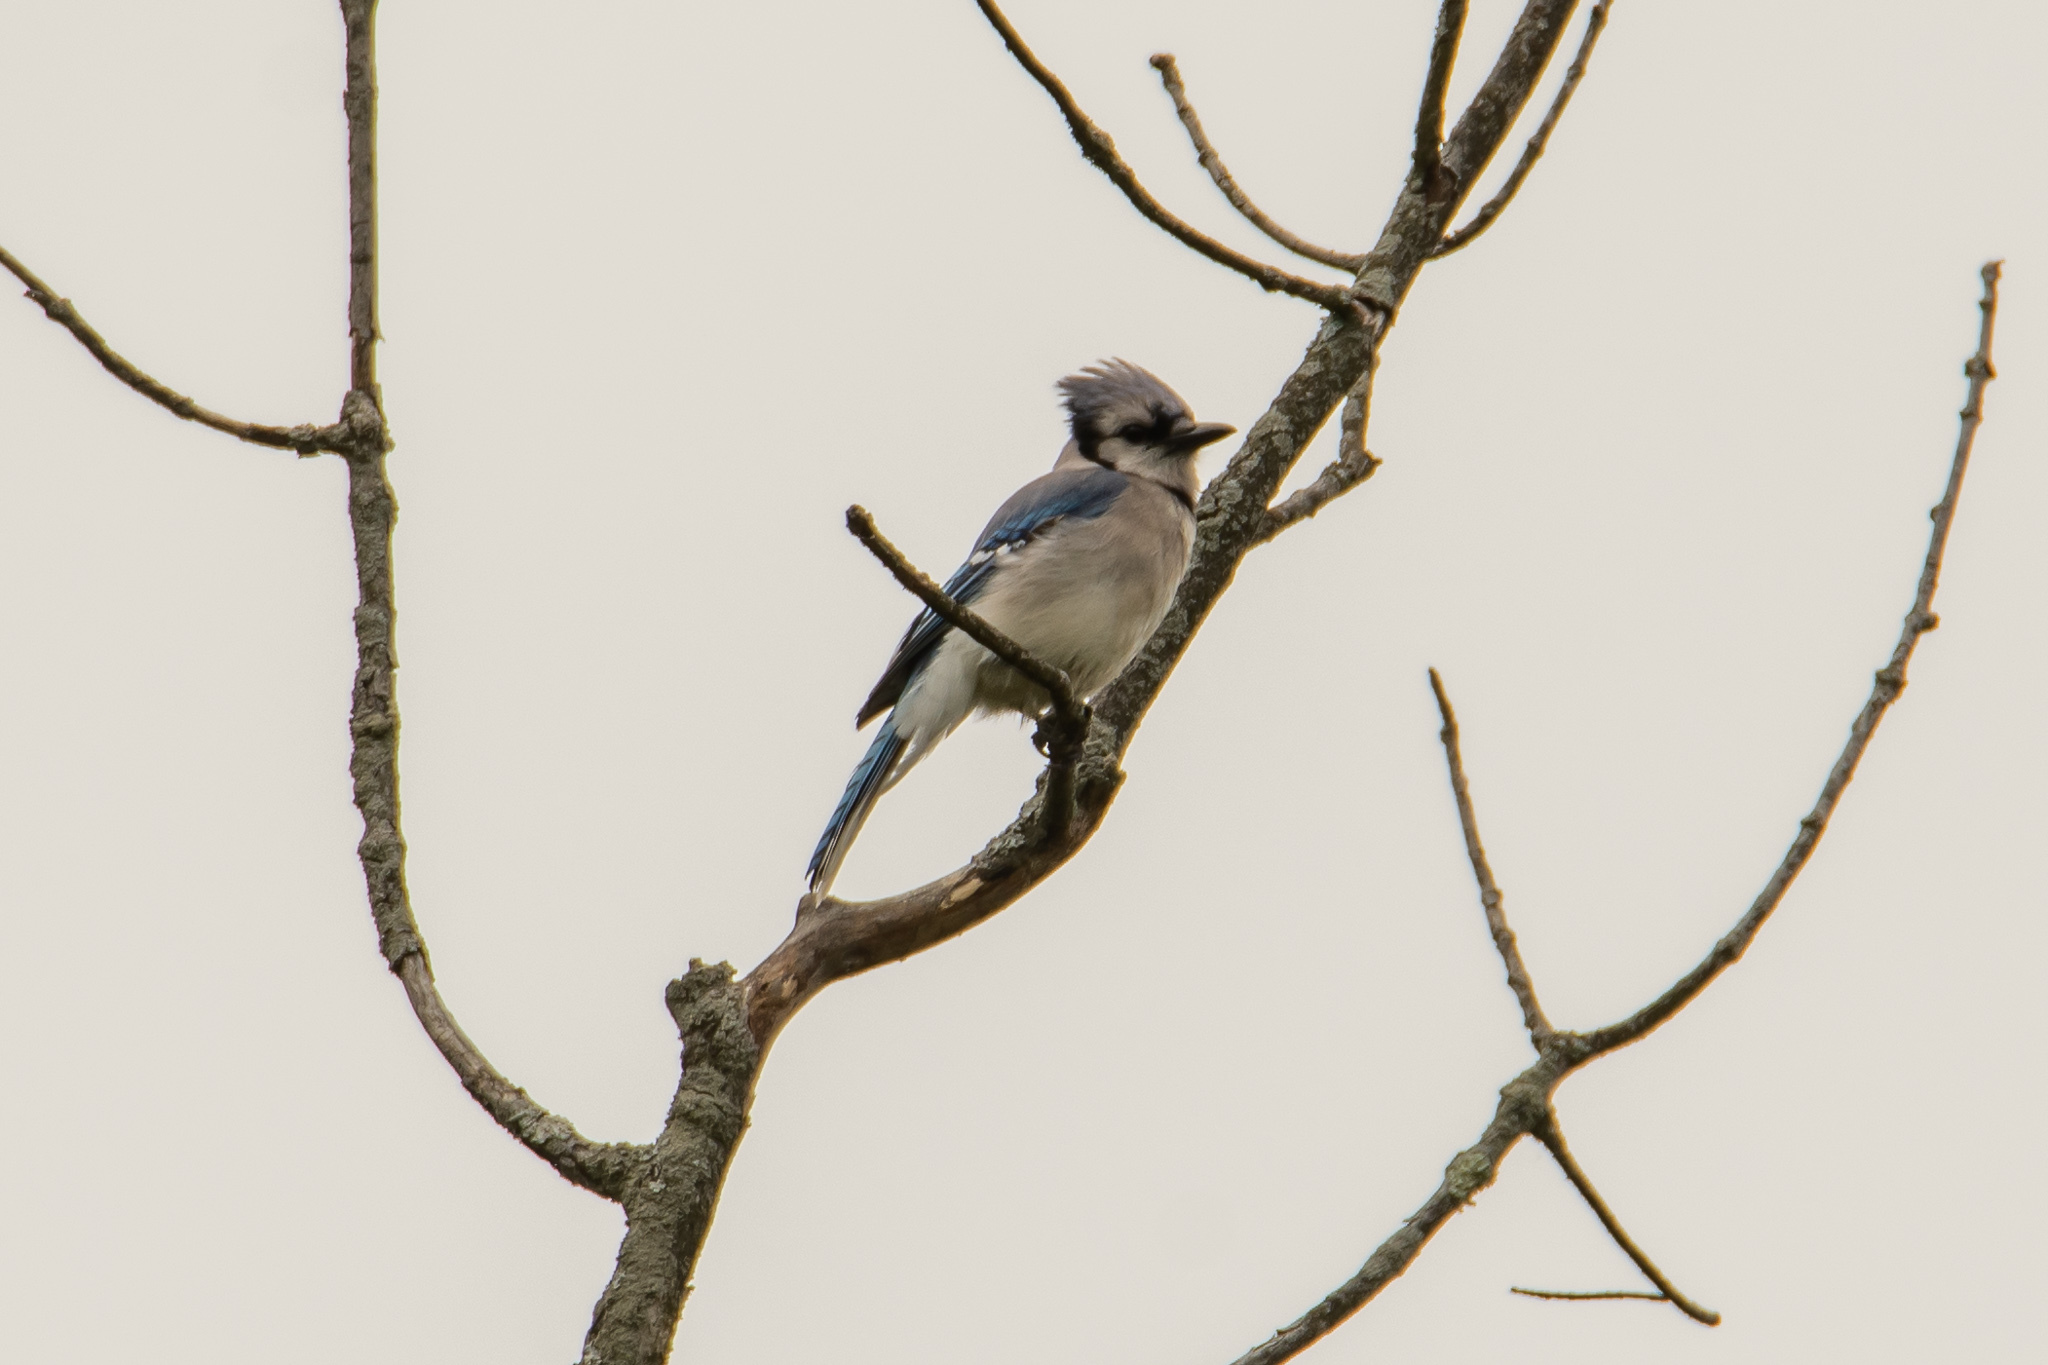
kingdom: Animalia
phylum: Chordata
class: Aves
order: Passeriformes
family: Corvidae
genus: Cyanocitta
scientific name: Cyanocitta cristata
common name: Blue jay
